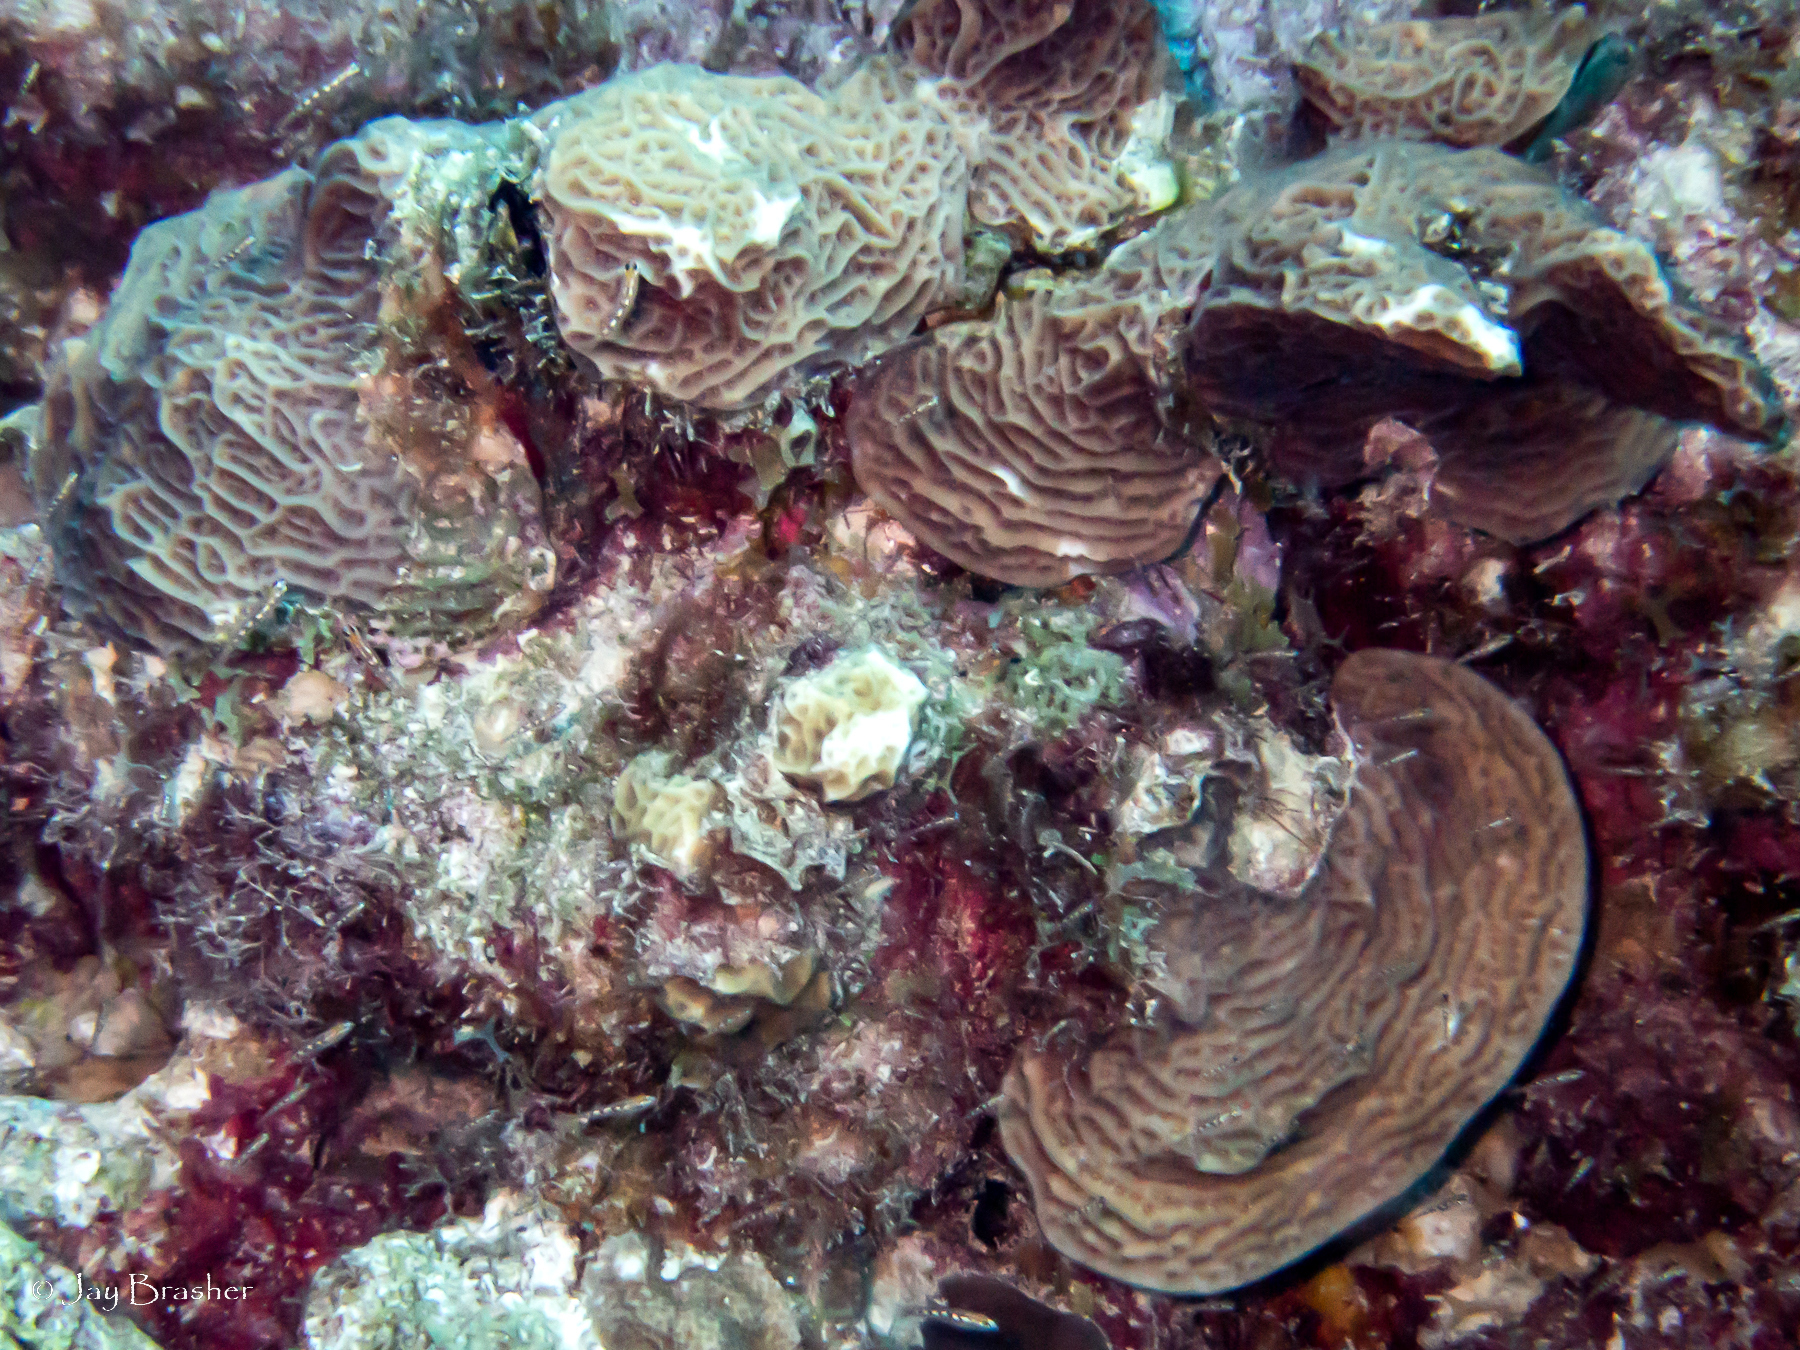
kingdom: Animalia
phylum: Cnidaria
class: Anthozoa
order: Scleractinia
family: Agariciidae
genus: Agaricia
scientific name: Agaricia agaricites
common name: Lettuce coral
